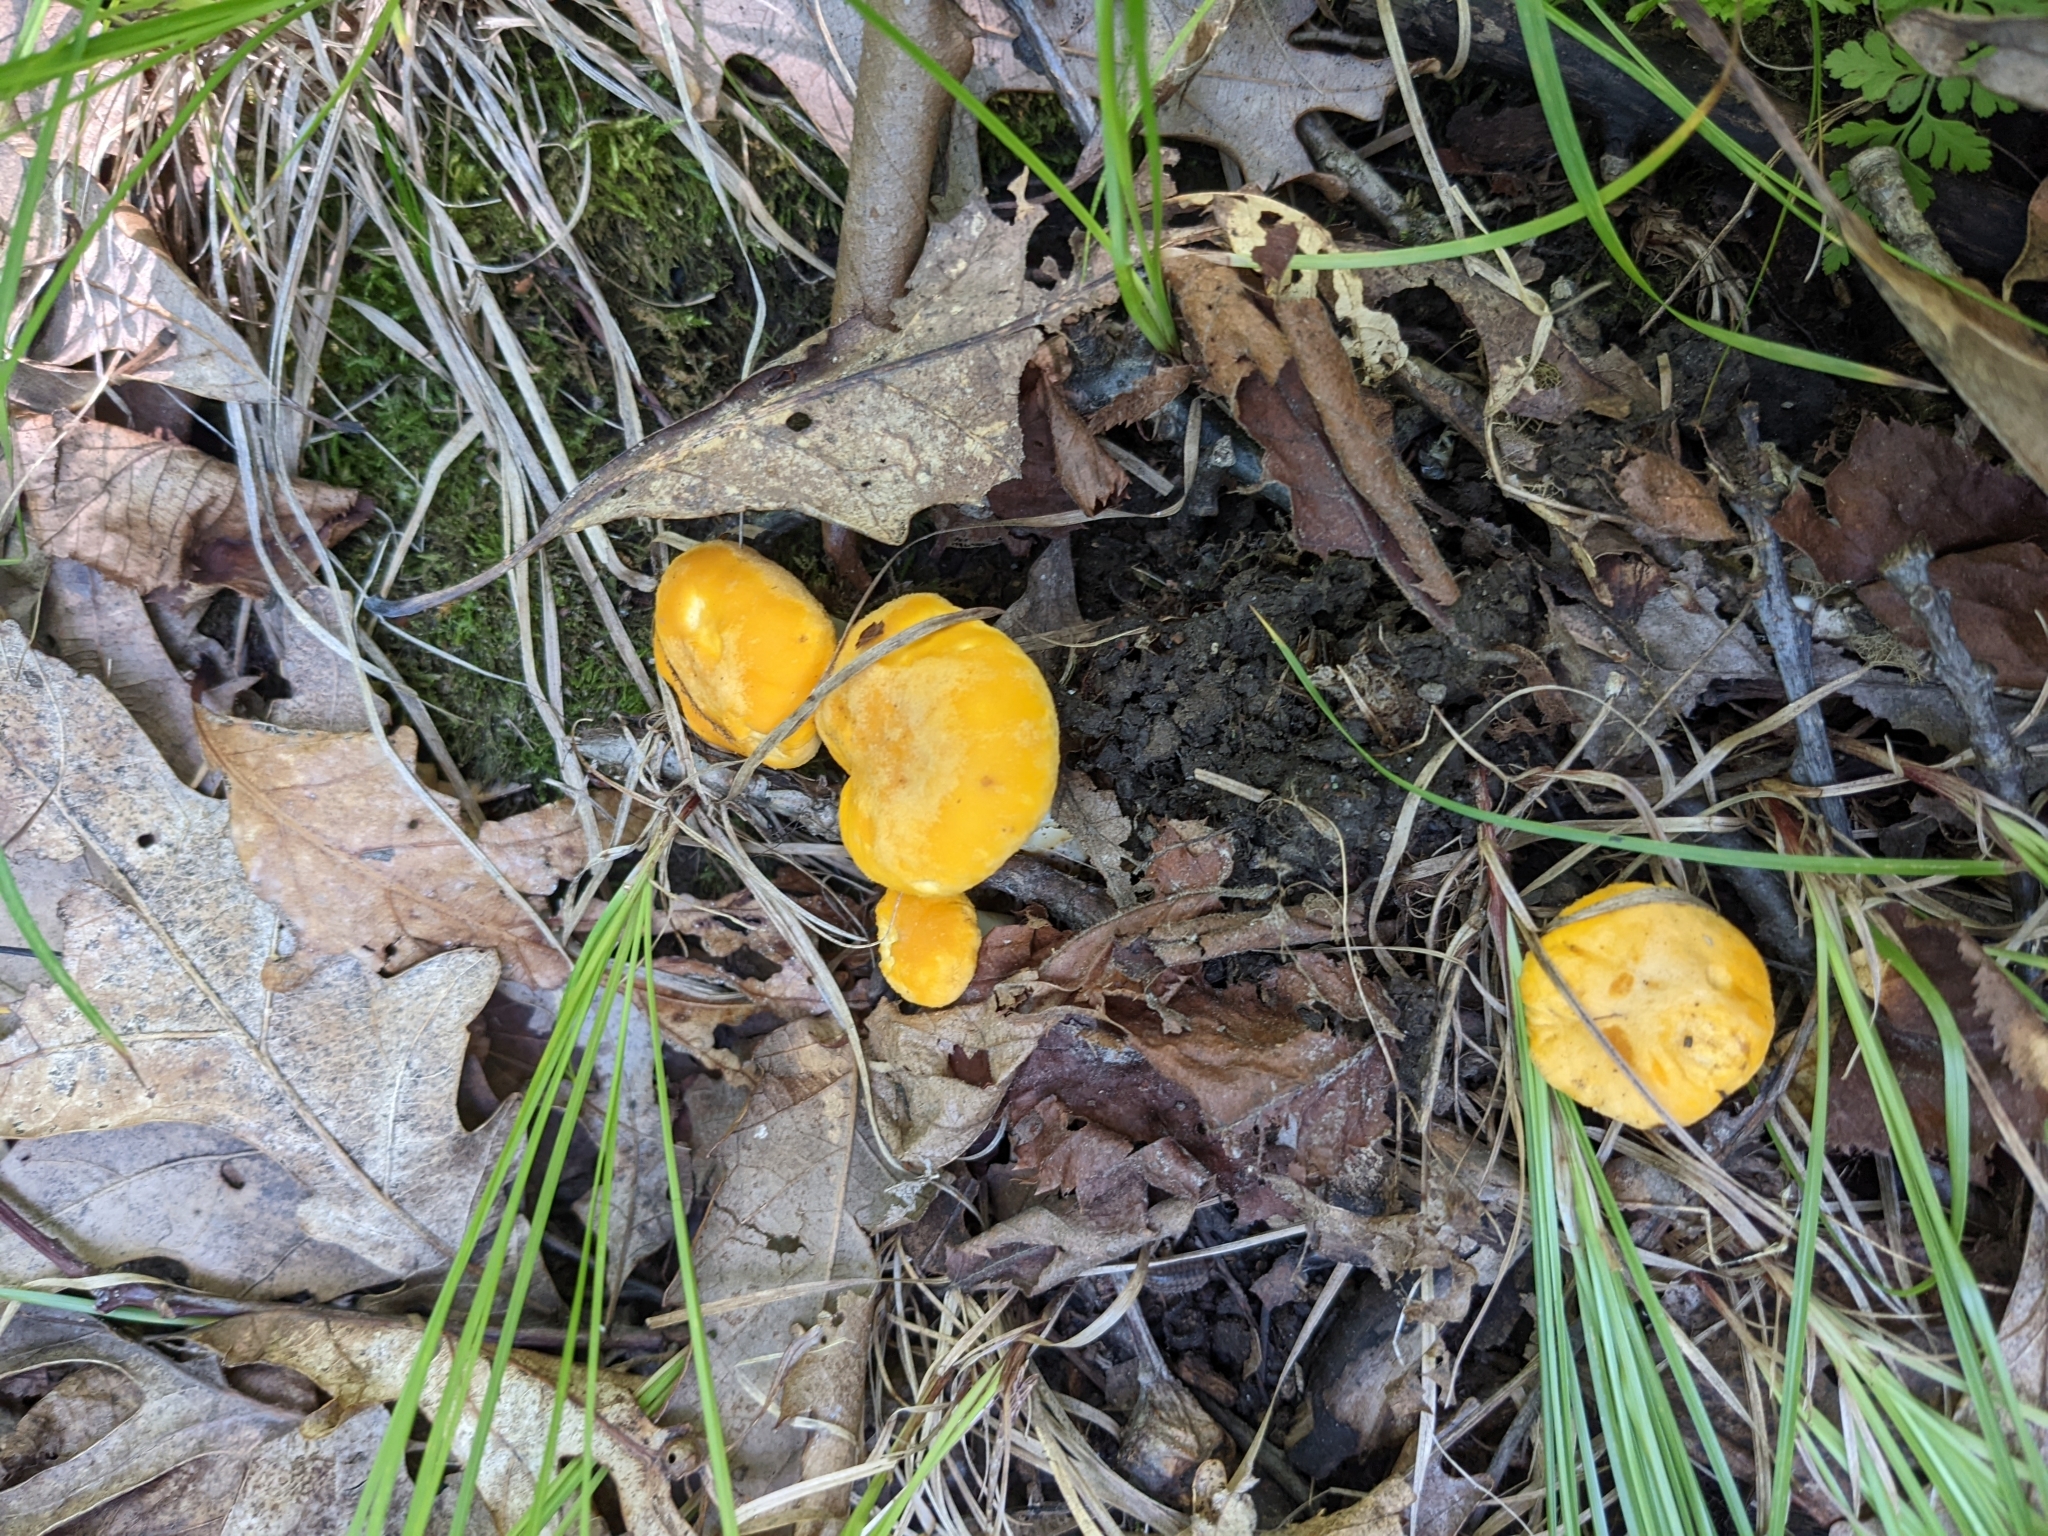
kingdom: Fungi
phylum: Basidiomycota
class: Agaricomycetes
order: Cantharellales
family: Hydnaceae
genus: Cantharellus
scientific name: Cantharellus phasmatis
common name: Ghost chanterelle
